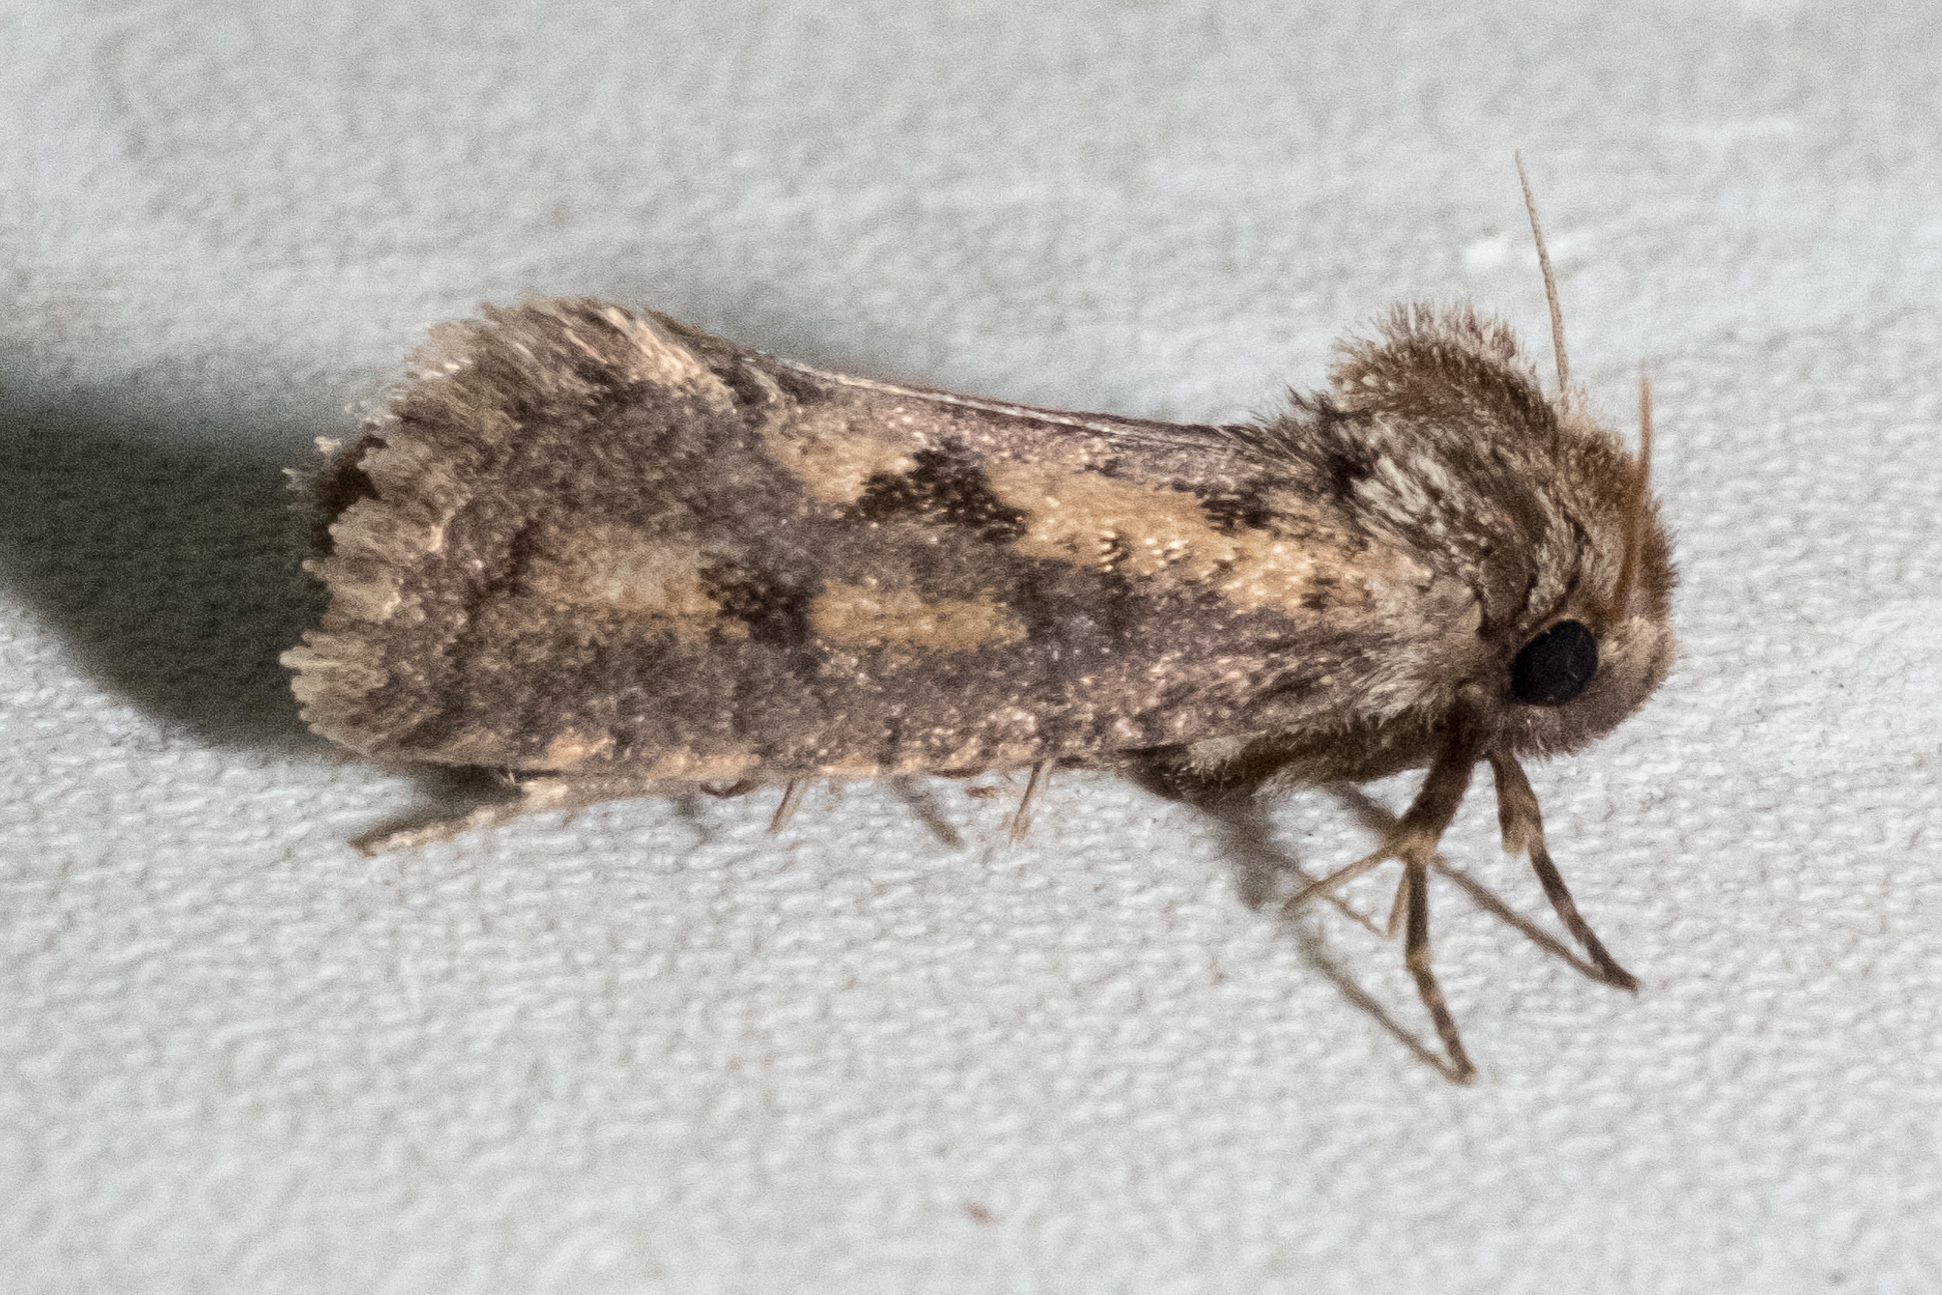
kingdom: Animalia
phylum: Arthropoda
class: Insecta
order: Lepidoptera
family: Tineidae
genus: Acrolophus
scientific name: Acrolophus popeanella
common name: Clemens' grass tubeworm moth
